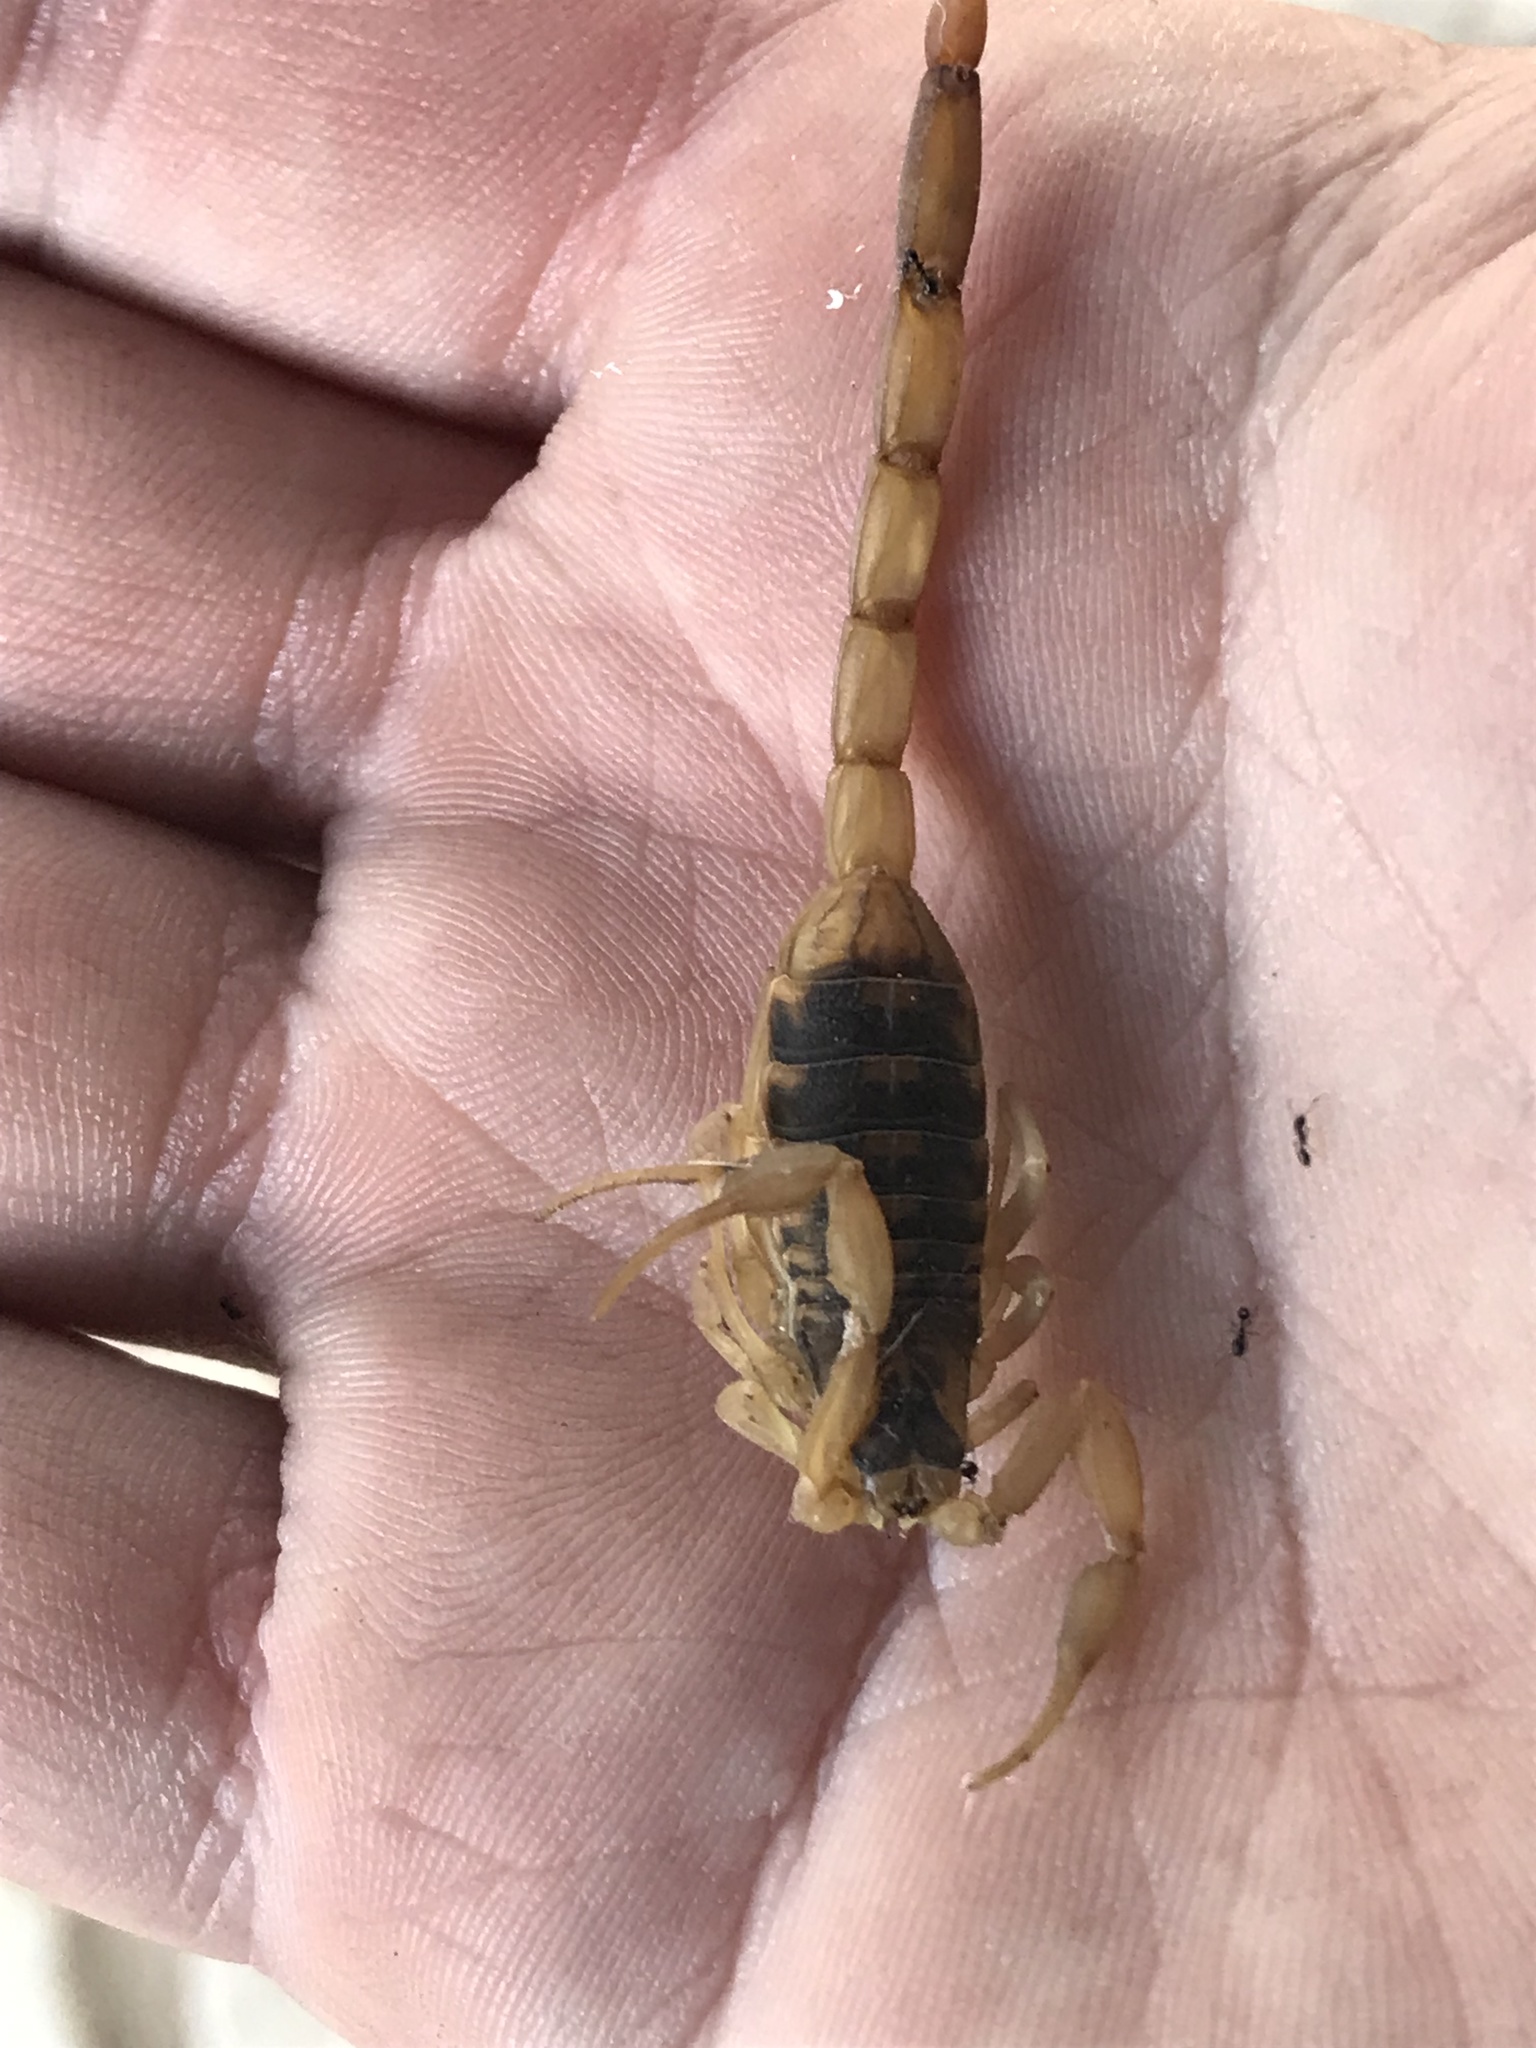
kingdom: Animalia
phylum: Arthropoda
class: Arachnida
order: Scorpiones
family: Buthidae
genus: Centruroides
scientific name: Centruroides vittatus
